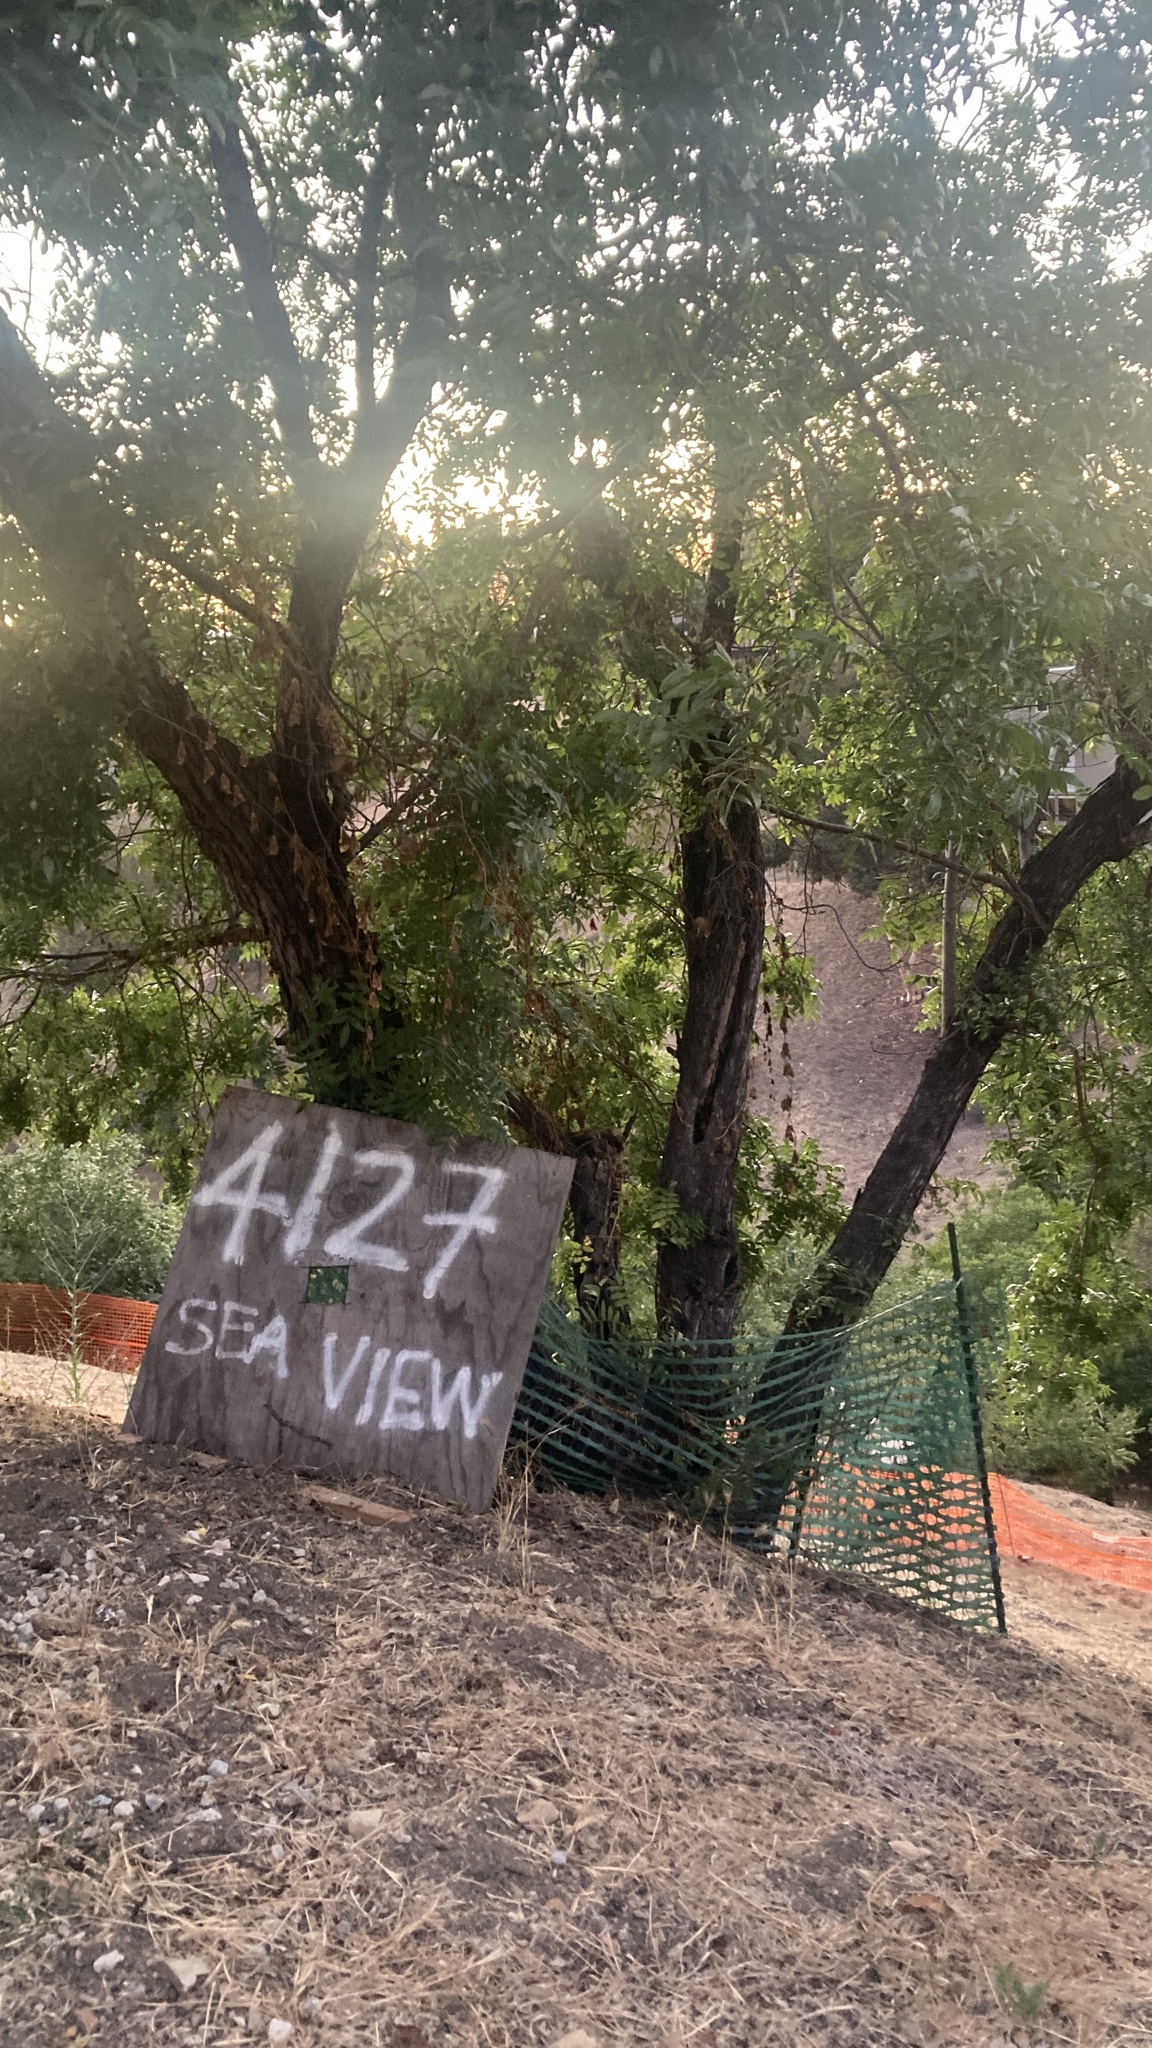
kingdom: Plantae
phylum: Tracheophyta
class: Magnoliopsida
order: Fagales
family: Juglandaceae
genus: Juglans
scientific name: Juglans californica
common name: Southern california black walnut
